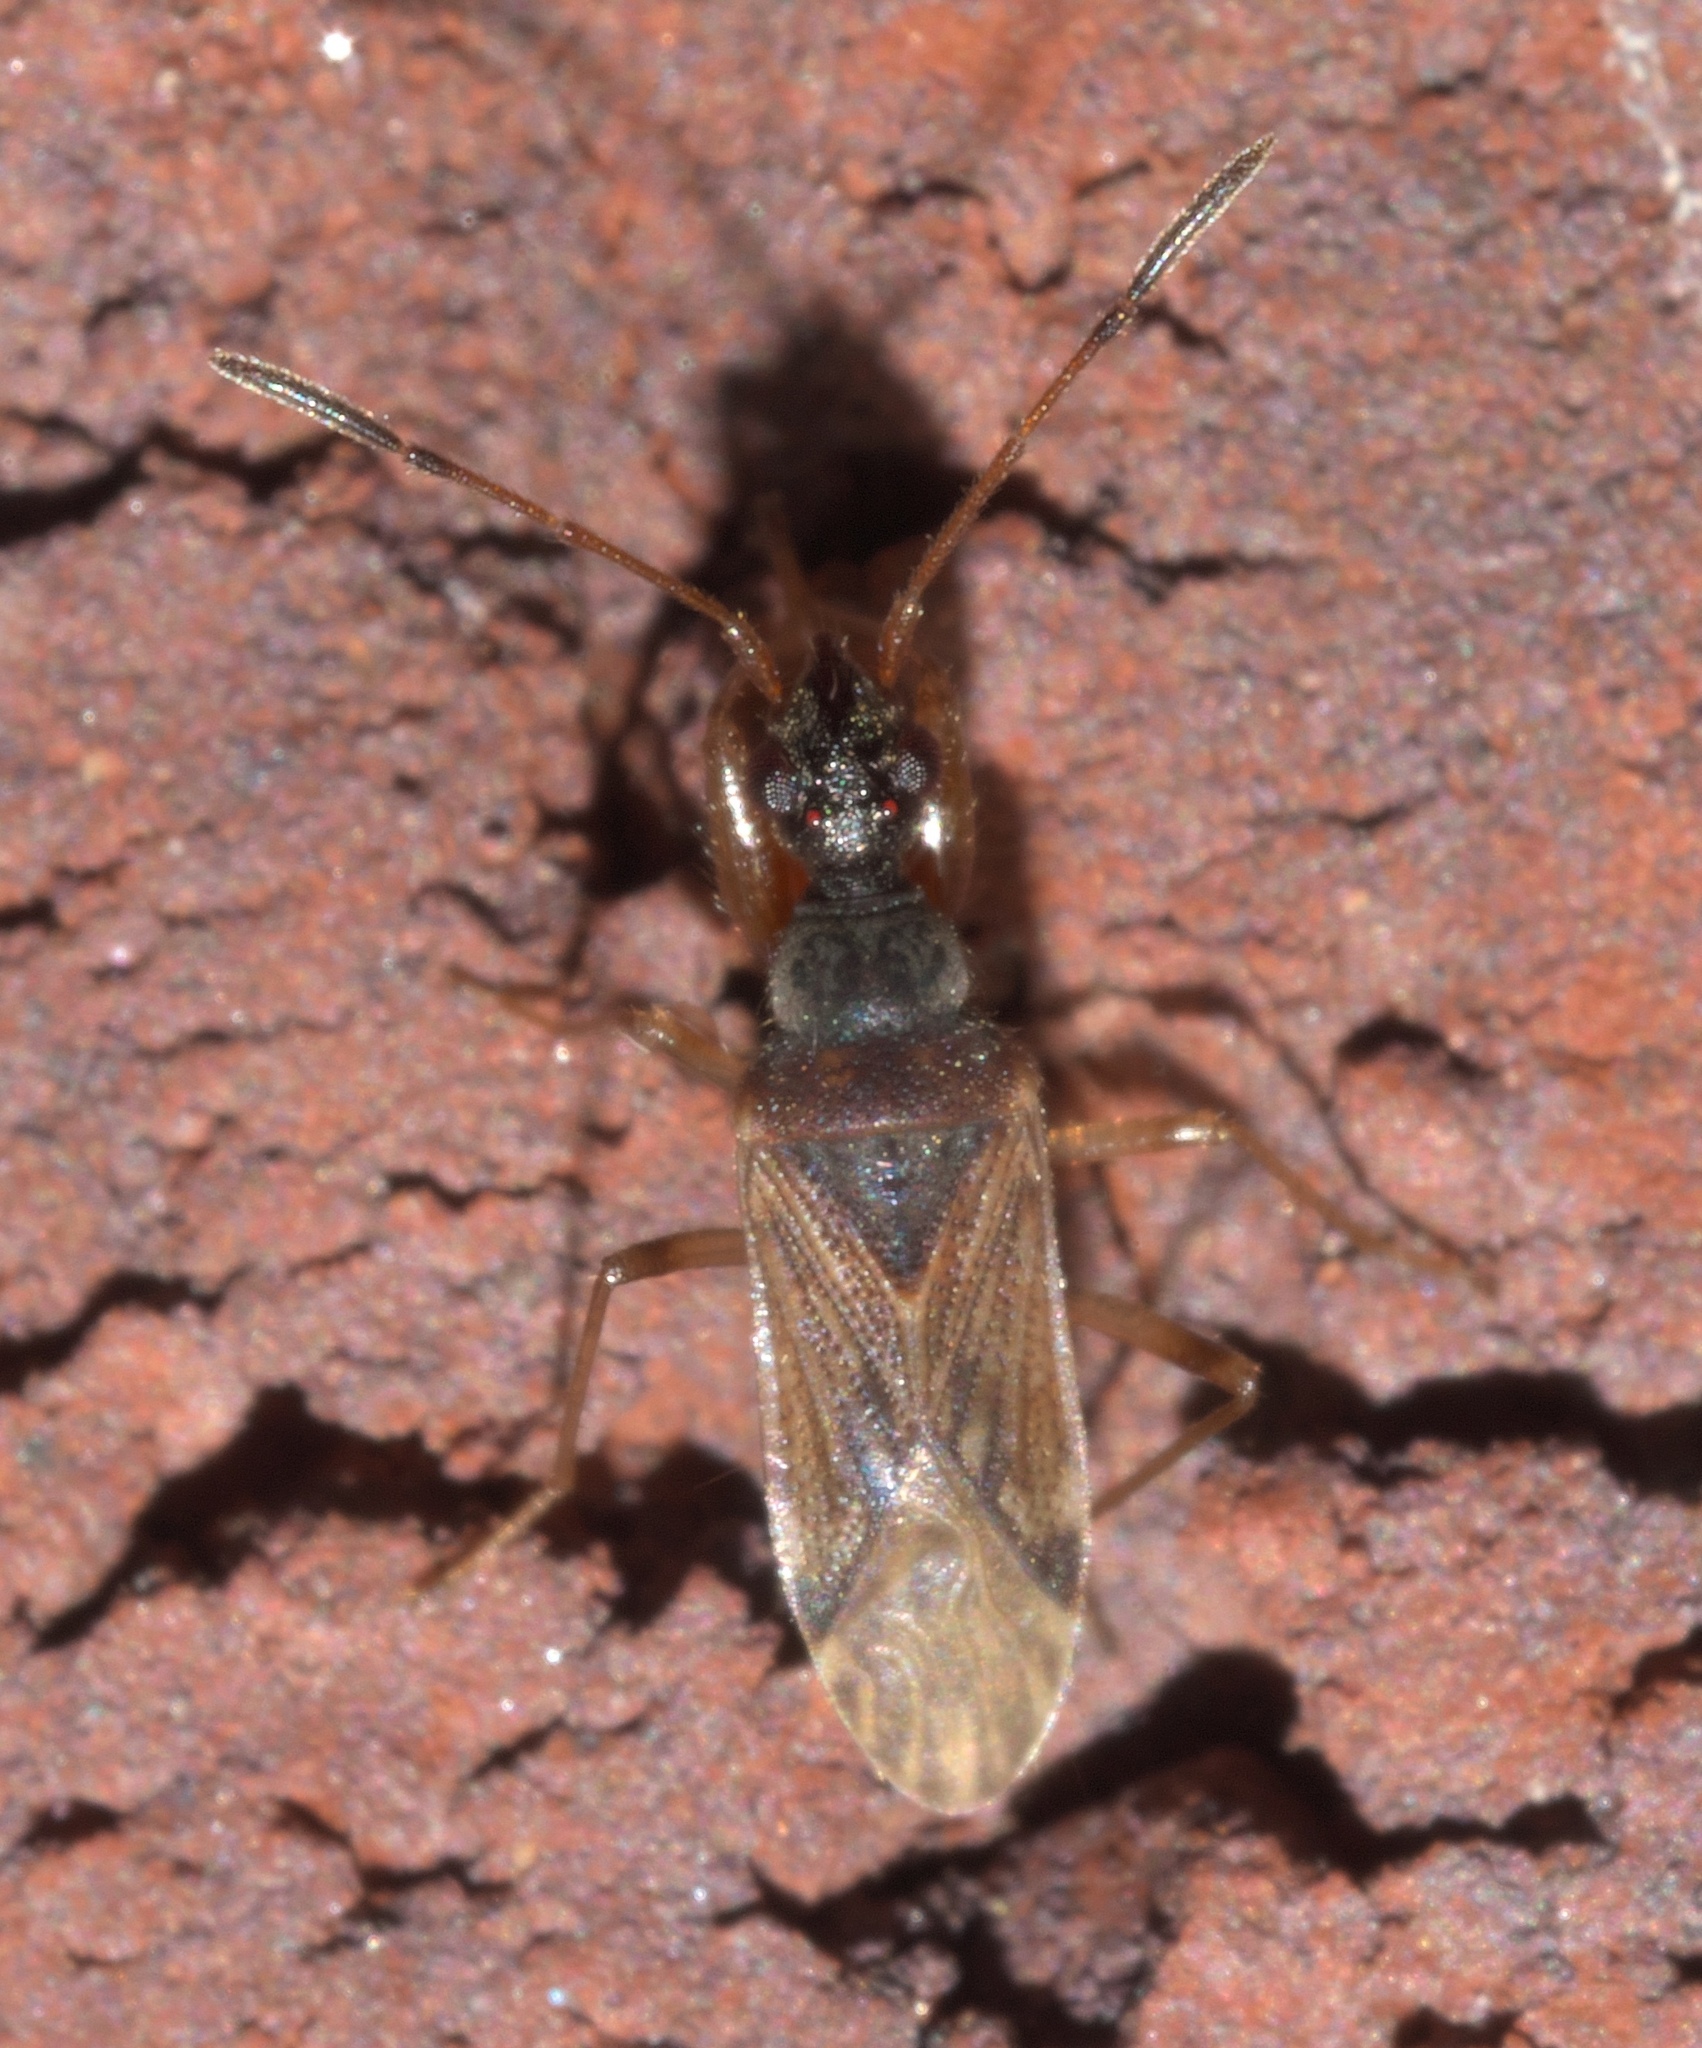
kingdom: Animalia
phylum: Arthropoda
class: Insecta
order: Hemiptera
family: Rhyparochromidae
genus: Heraeus
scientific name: Heraeus plebejus
